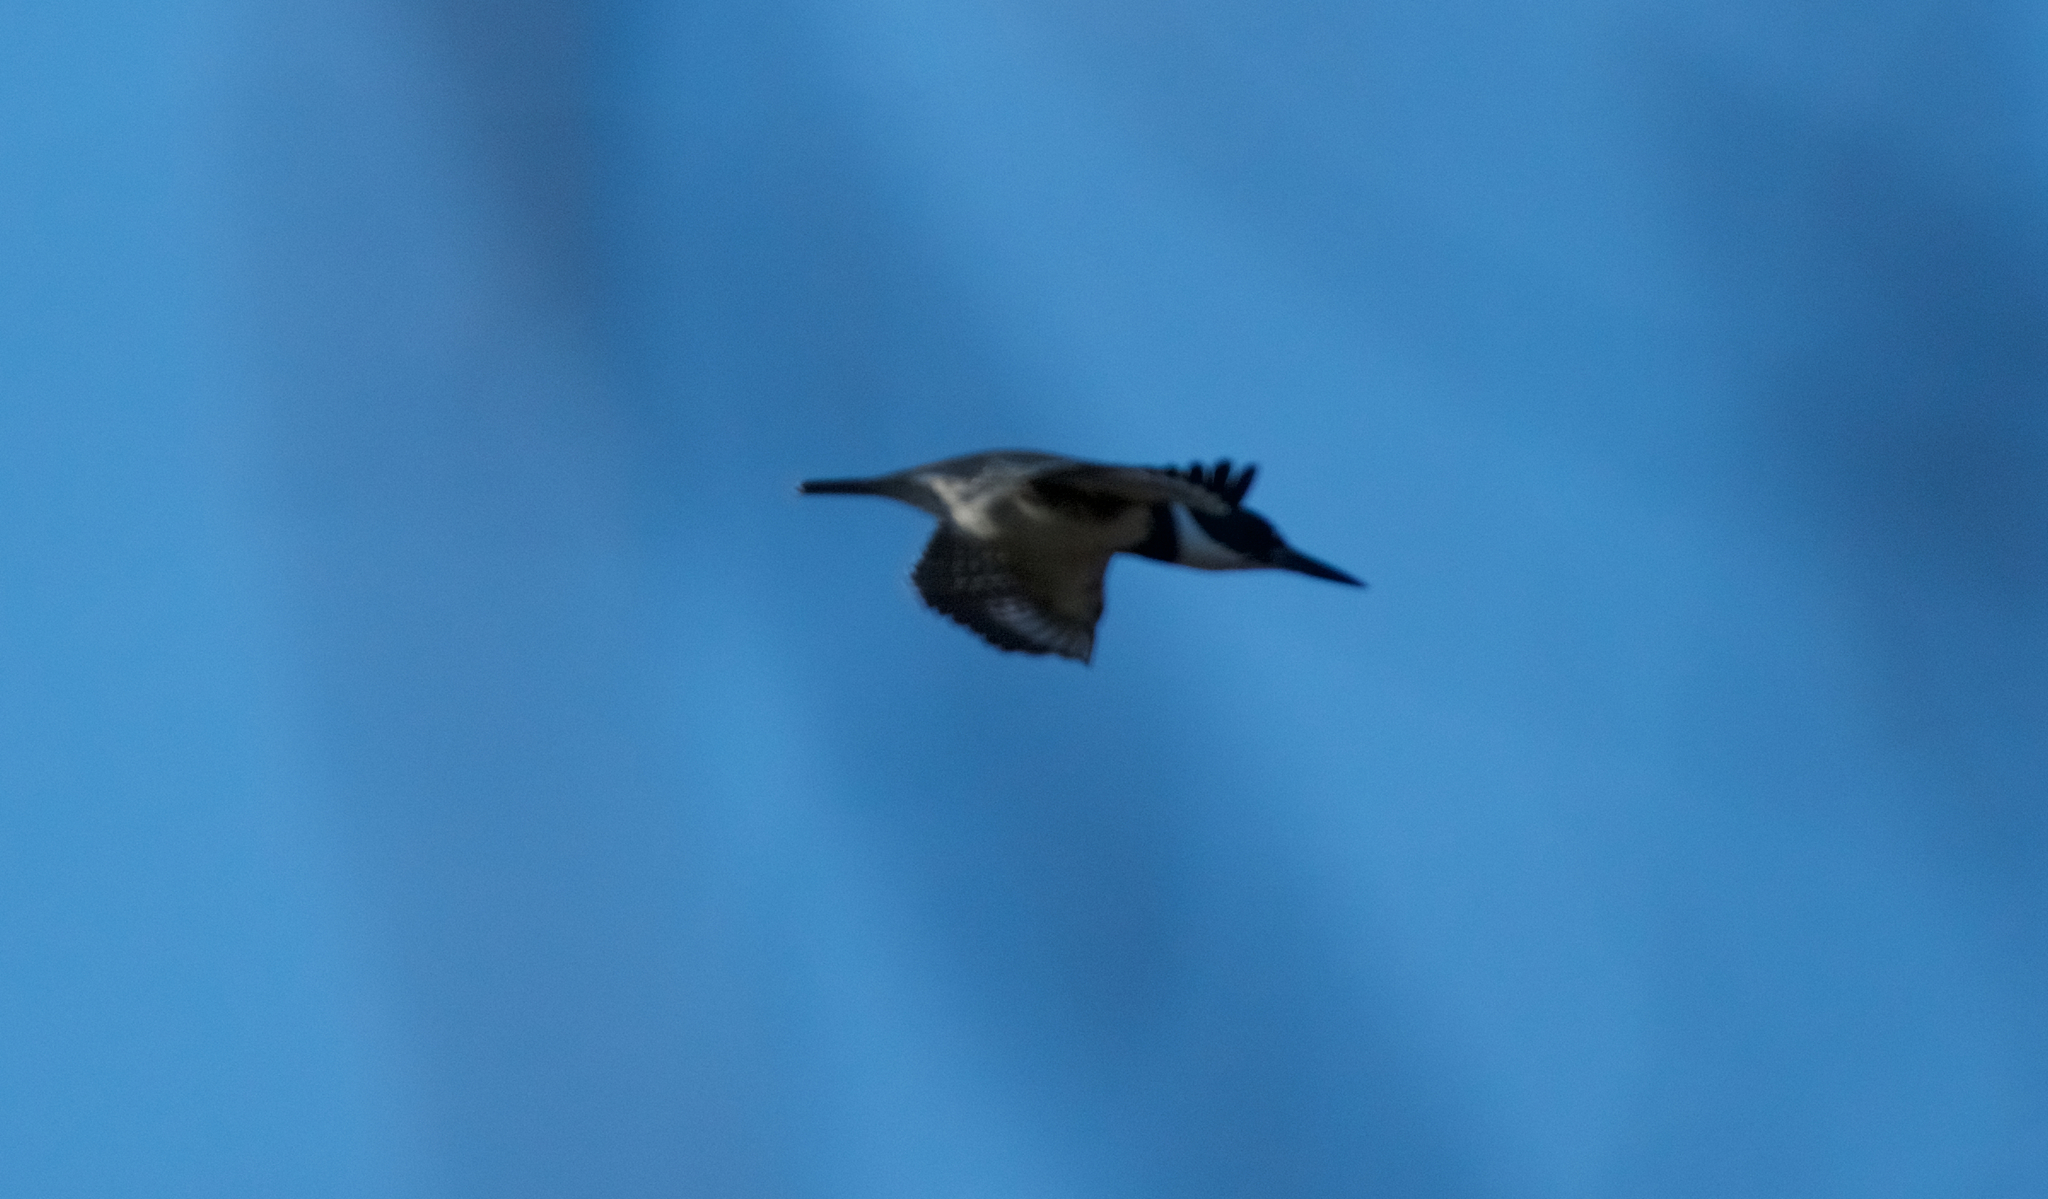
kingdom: Animalia
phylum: Chordata
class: Aves
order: Coraciiformes
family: Alcedinidae
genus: Megaceryle
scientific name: Megaceryle alcyon
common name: Belted kingfisher
